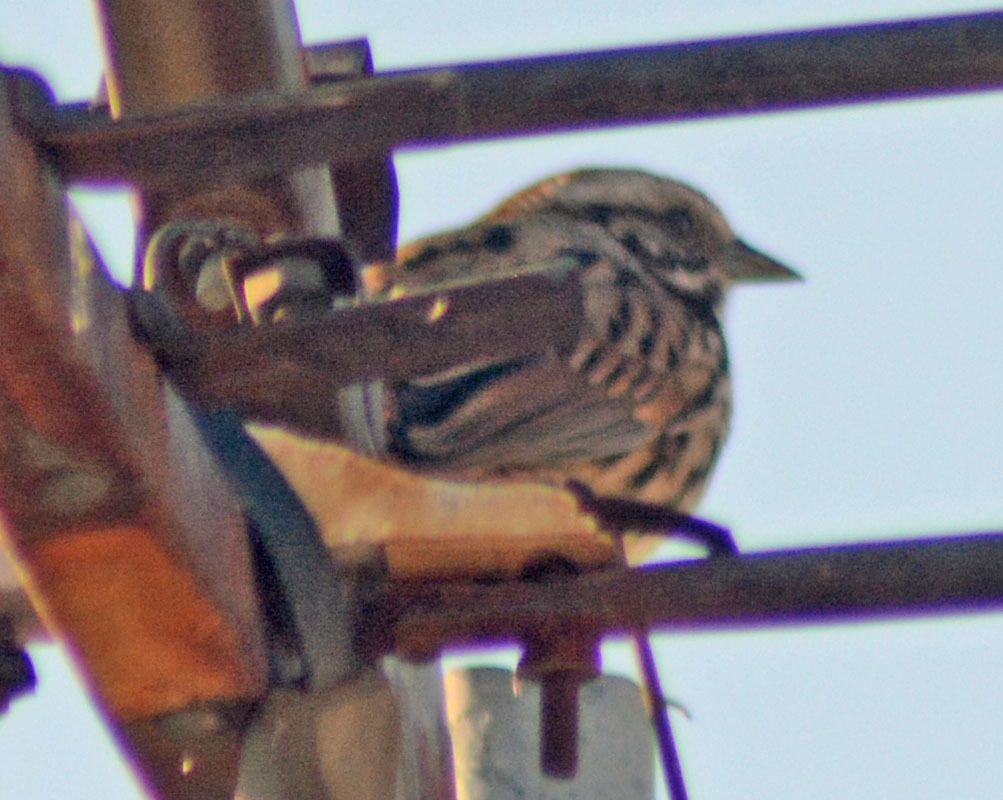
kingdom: Animalia
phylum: Chordata
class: Aves
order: Passeriformes
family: Passerellidae
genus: Melospiza
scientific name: Melospiza melodia
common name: Song sparrow
